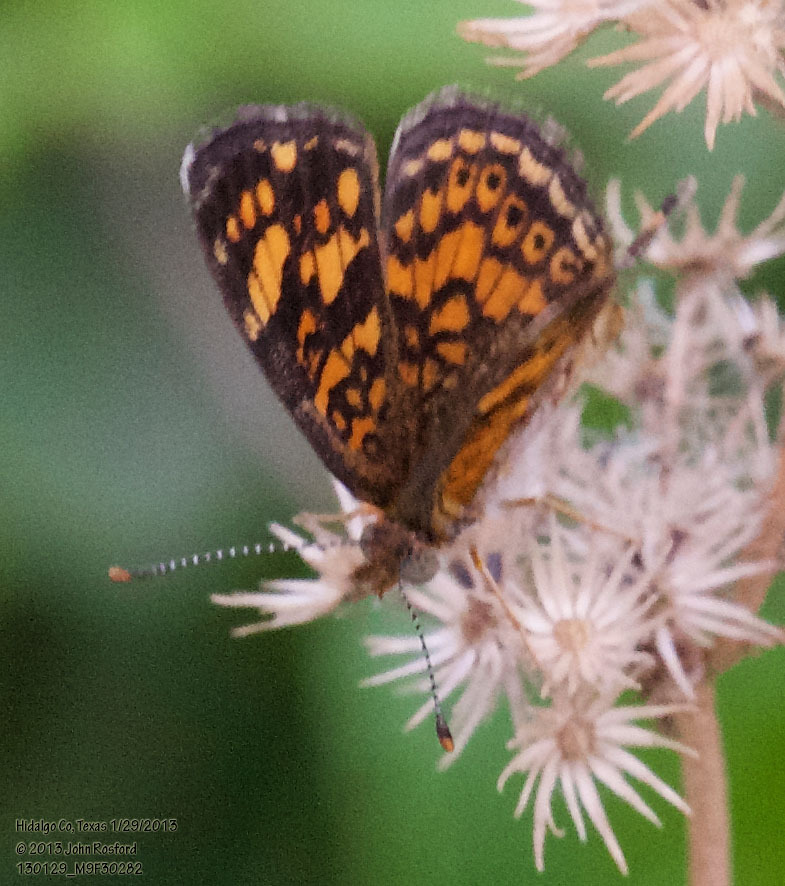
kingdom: Animalia
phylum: Arthropoda
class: Insecta
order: Lepidoptera
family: Nymphalidae
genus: Phyciodes
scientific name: Phyciodes tharos
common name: Pearl crescent
